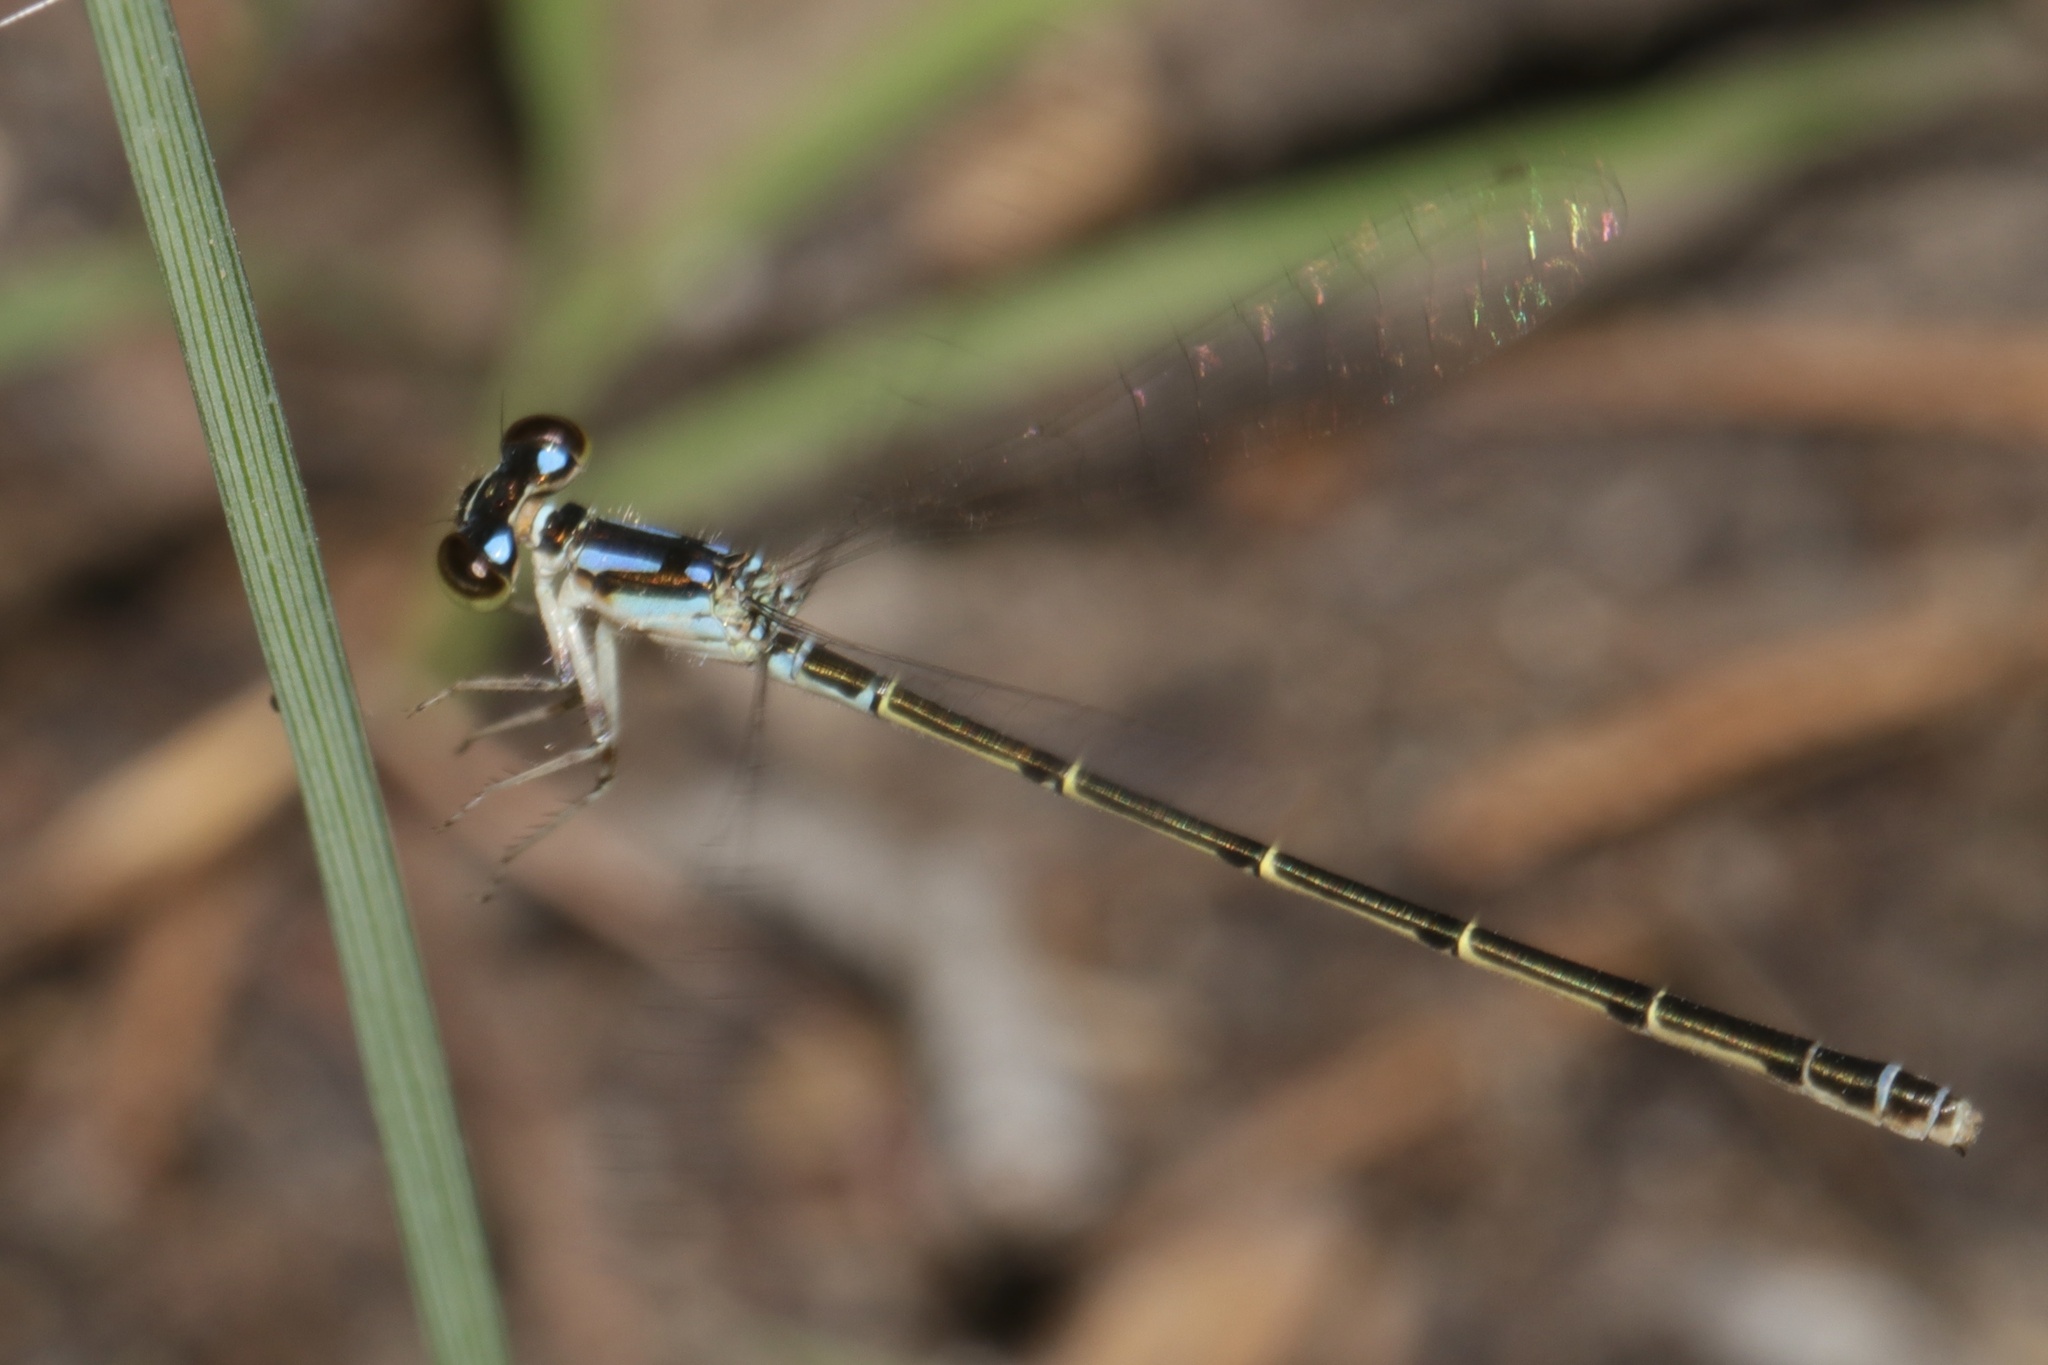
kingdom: Animalia
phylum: Arthropoda
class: Insecta
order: Odonata
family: Coenagrionidae
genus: Ischnura
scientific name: Ischnura posita
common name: Fragile forktail
